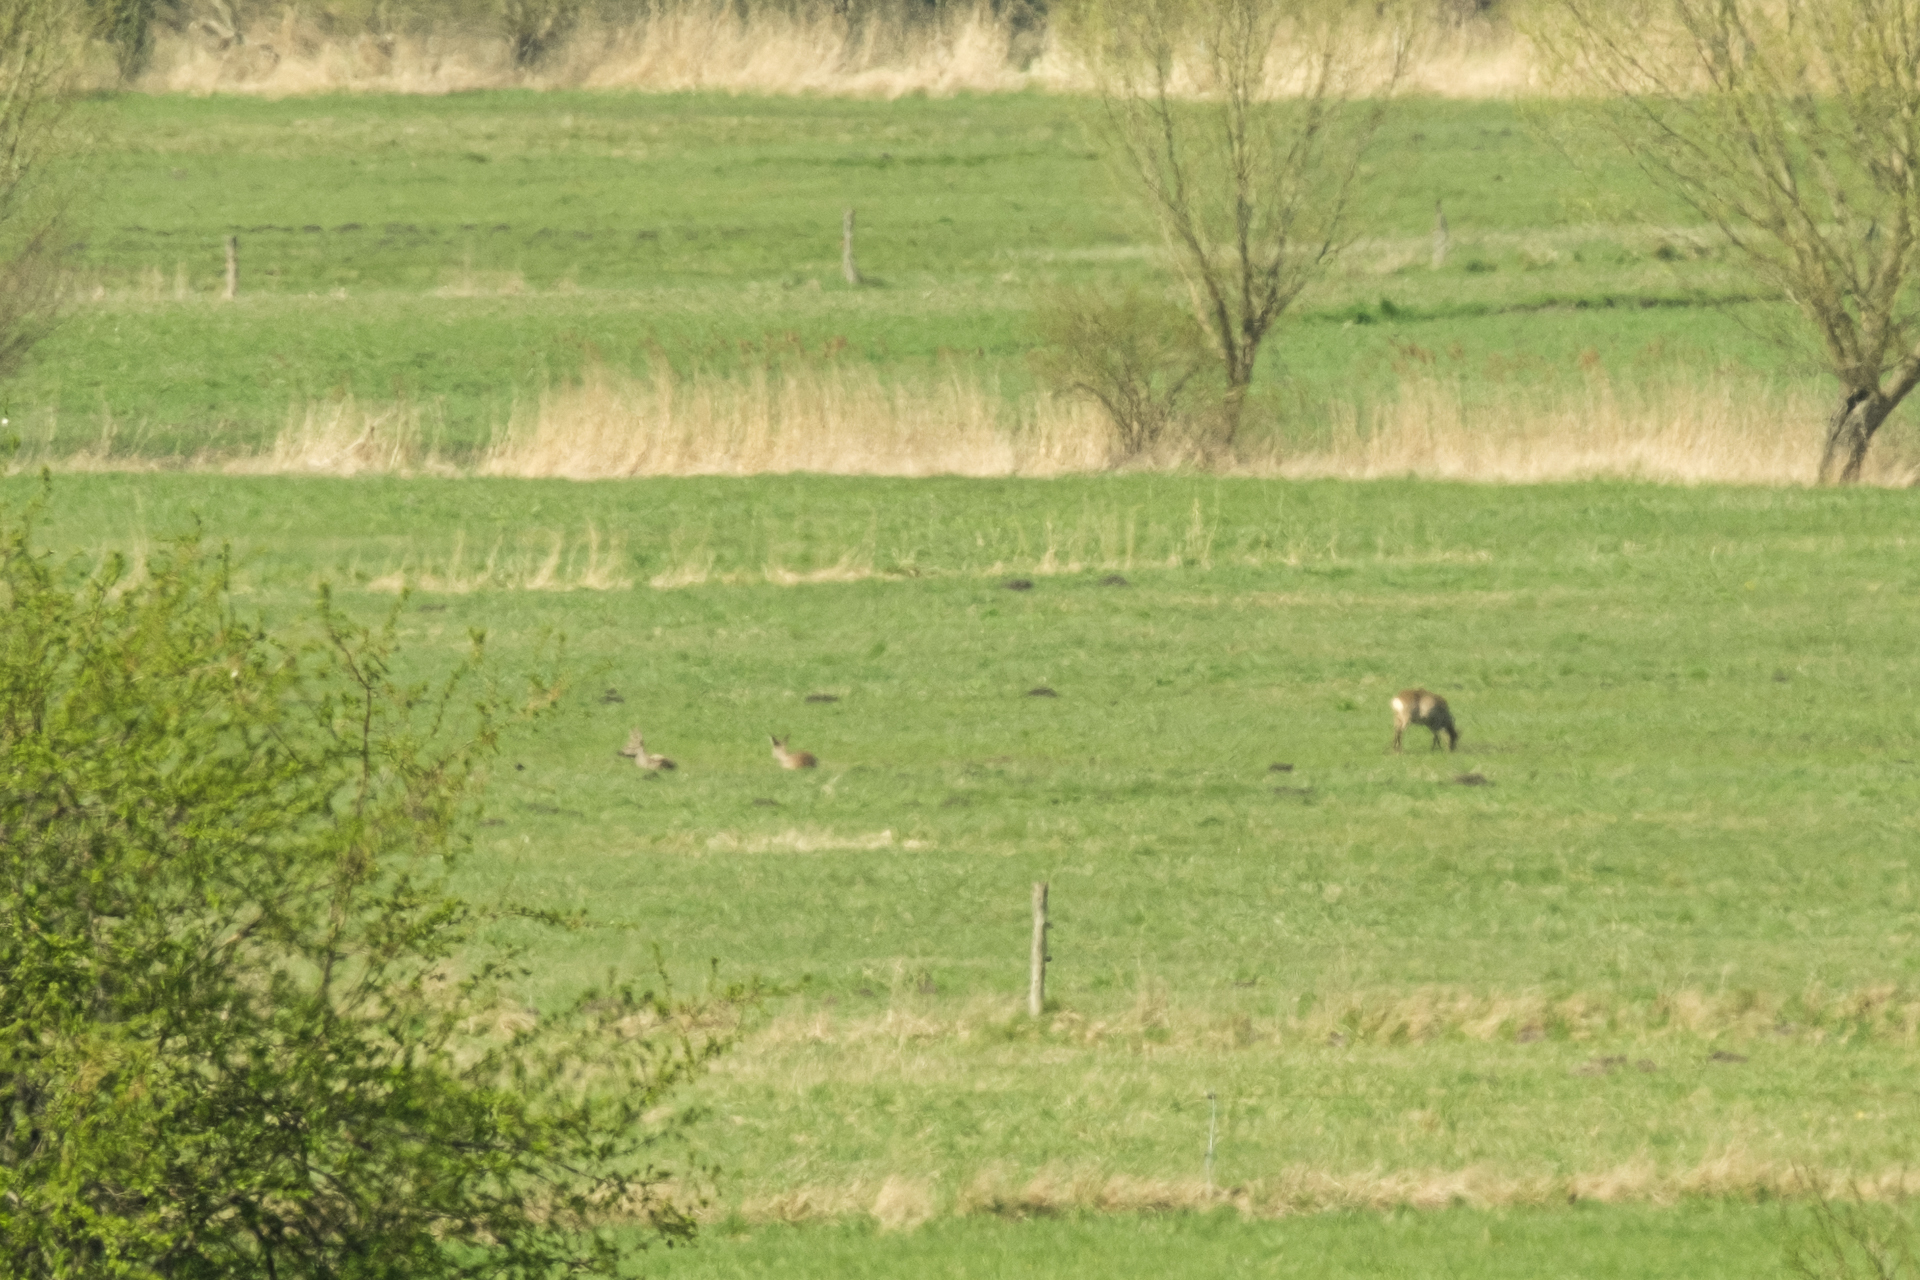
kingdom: Animalia
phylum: Chordata
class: Mammalia
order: Artiodactyla
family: Cervidae
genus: Capreolus
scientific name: Capreolus capreolus
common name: Western roe deer
